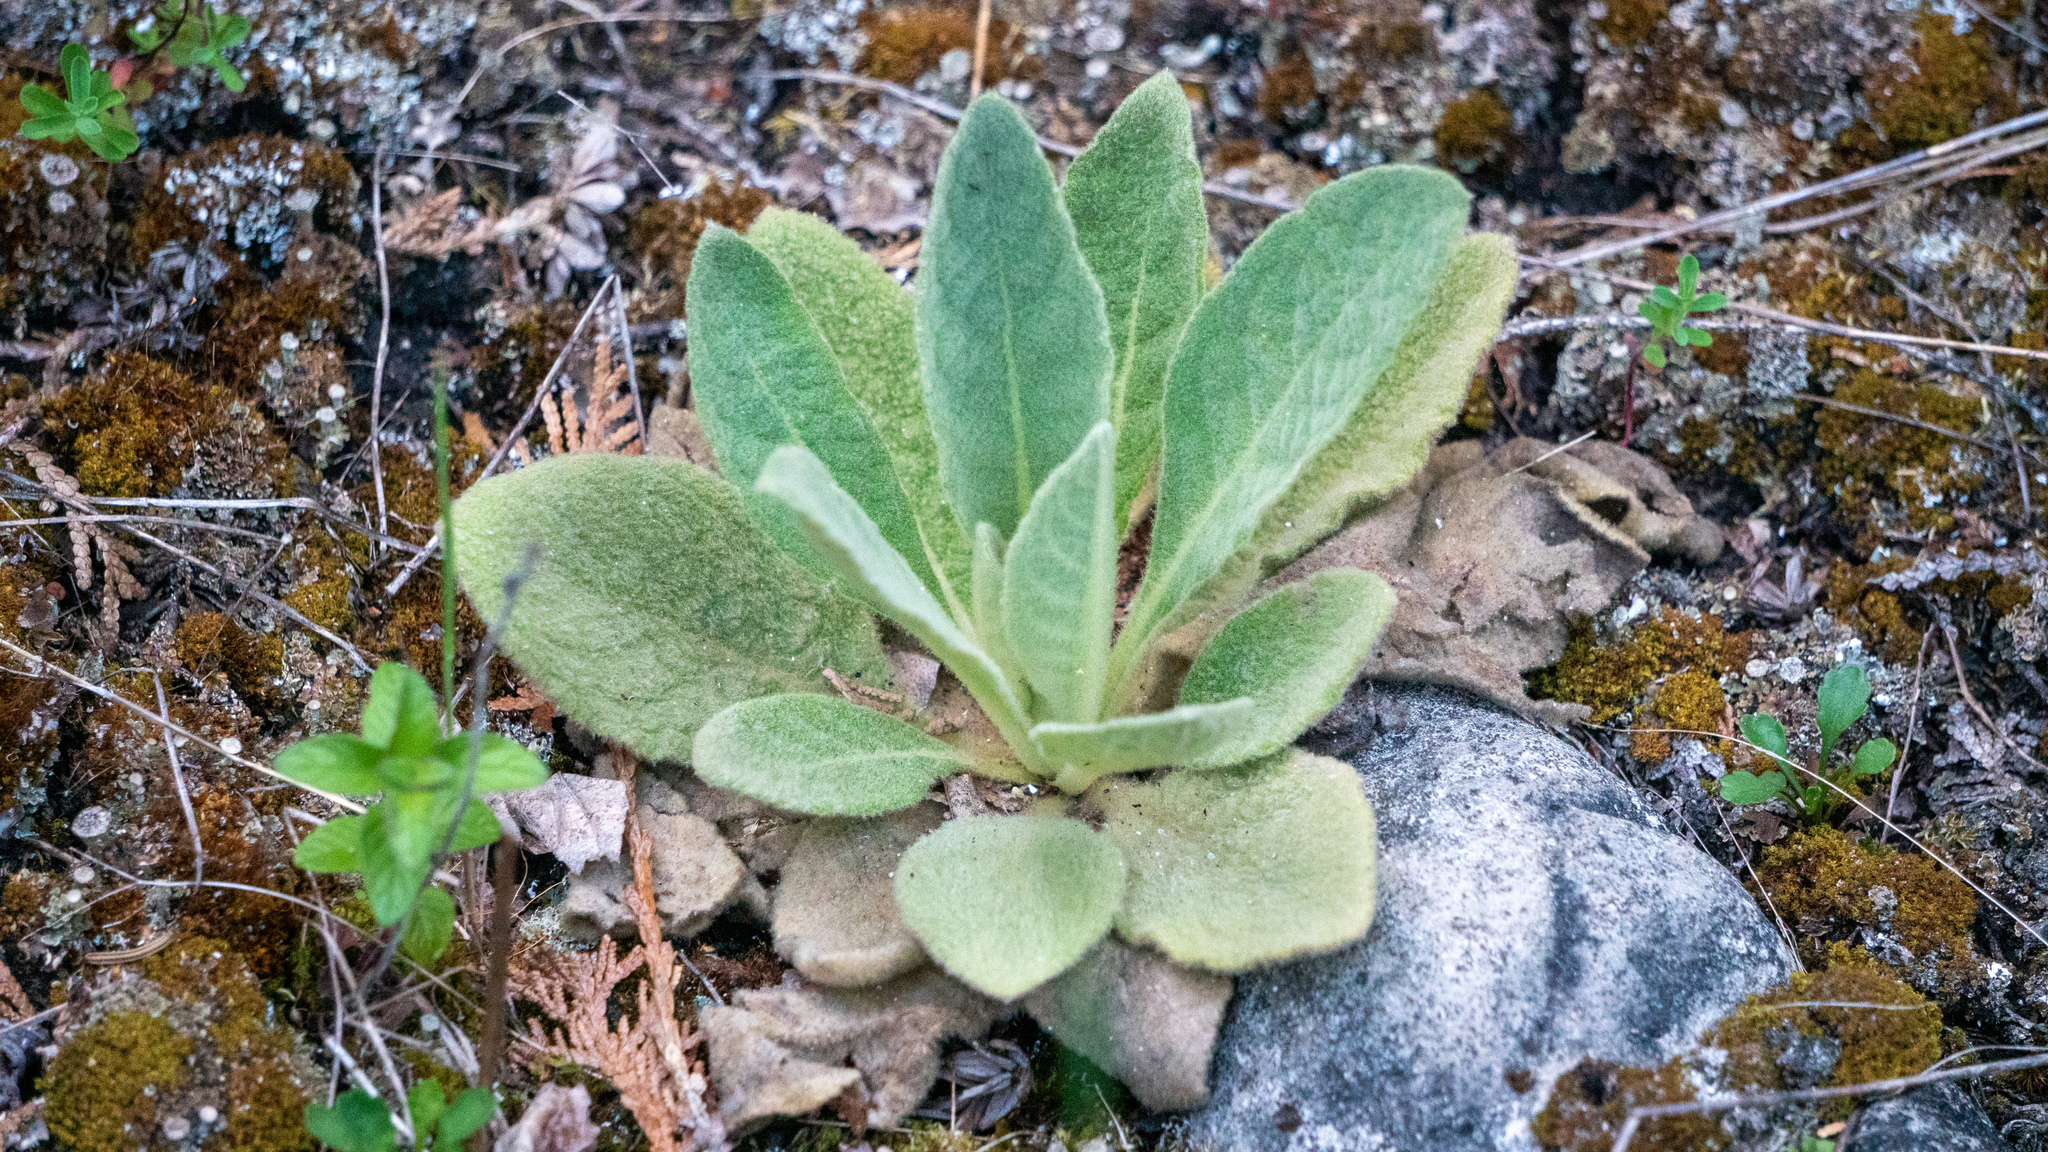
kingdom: Plantae
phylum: Tracheophyta
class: Magnoliopsida
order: Lamiales
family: Scrophulariaceae
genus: Verbascum
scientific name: Verbascum thapsus
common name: Common mullein
